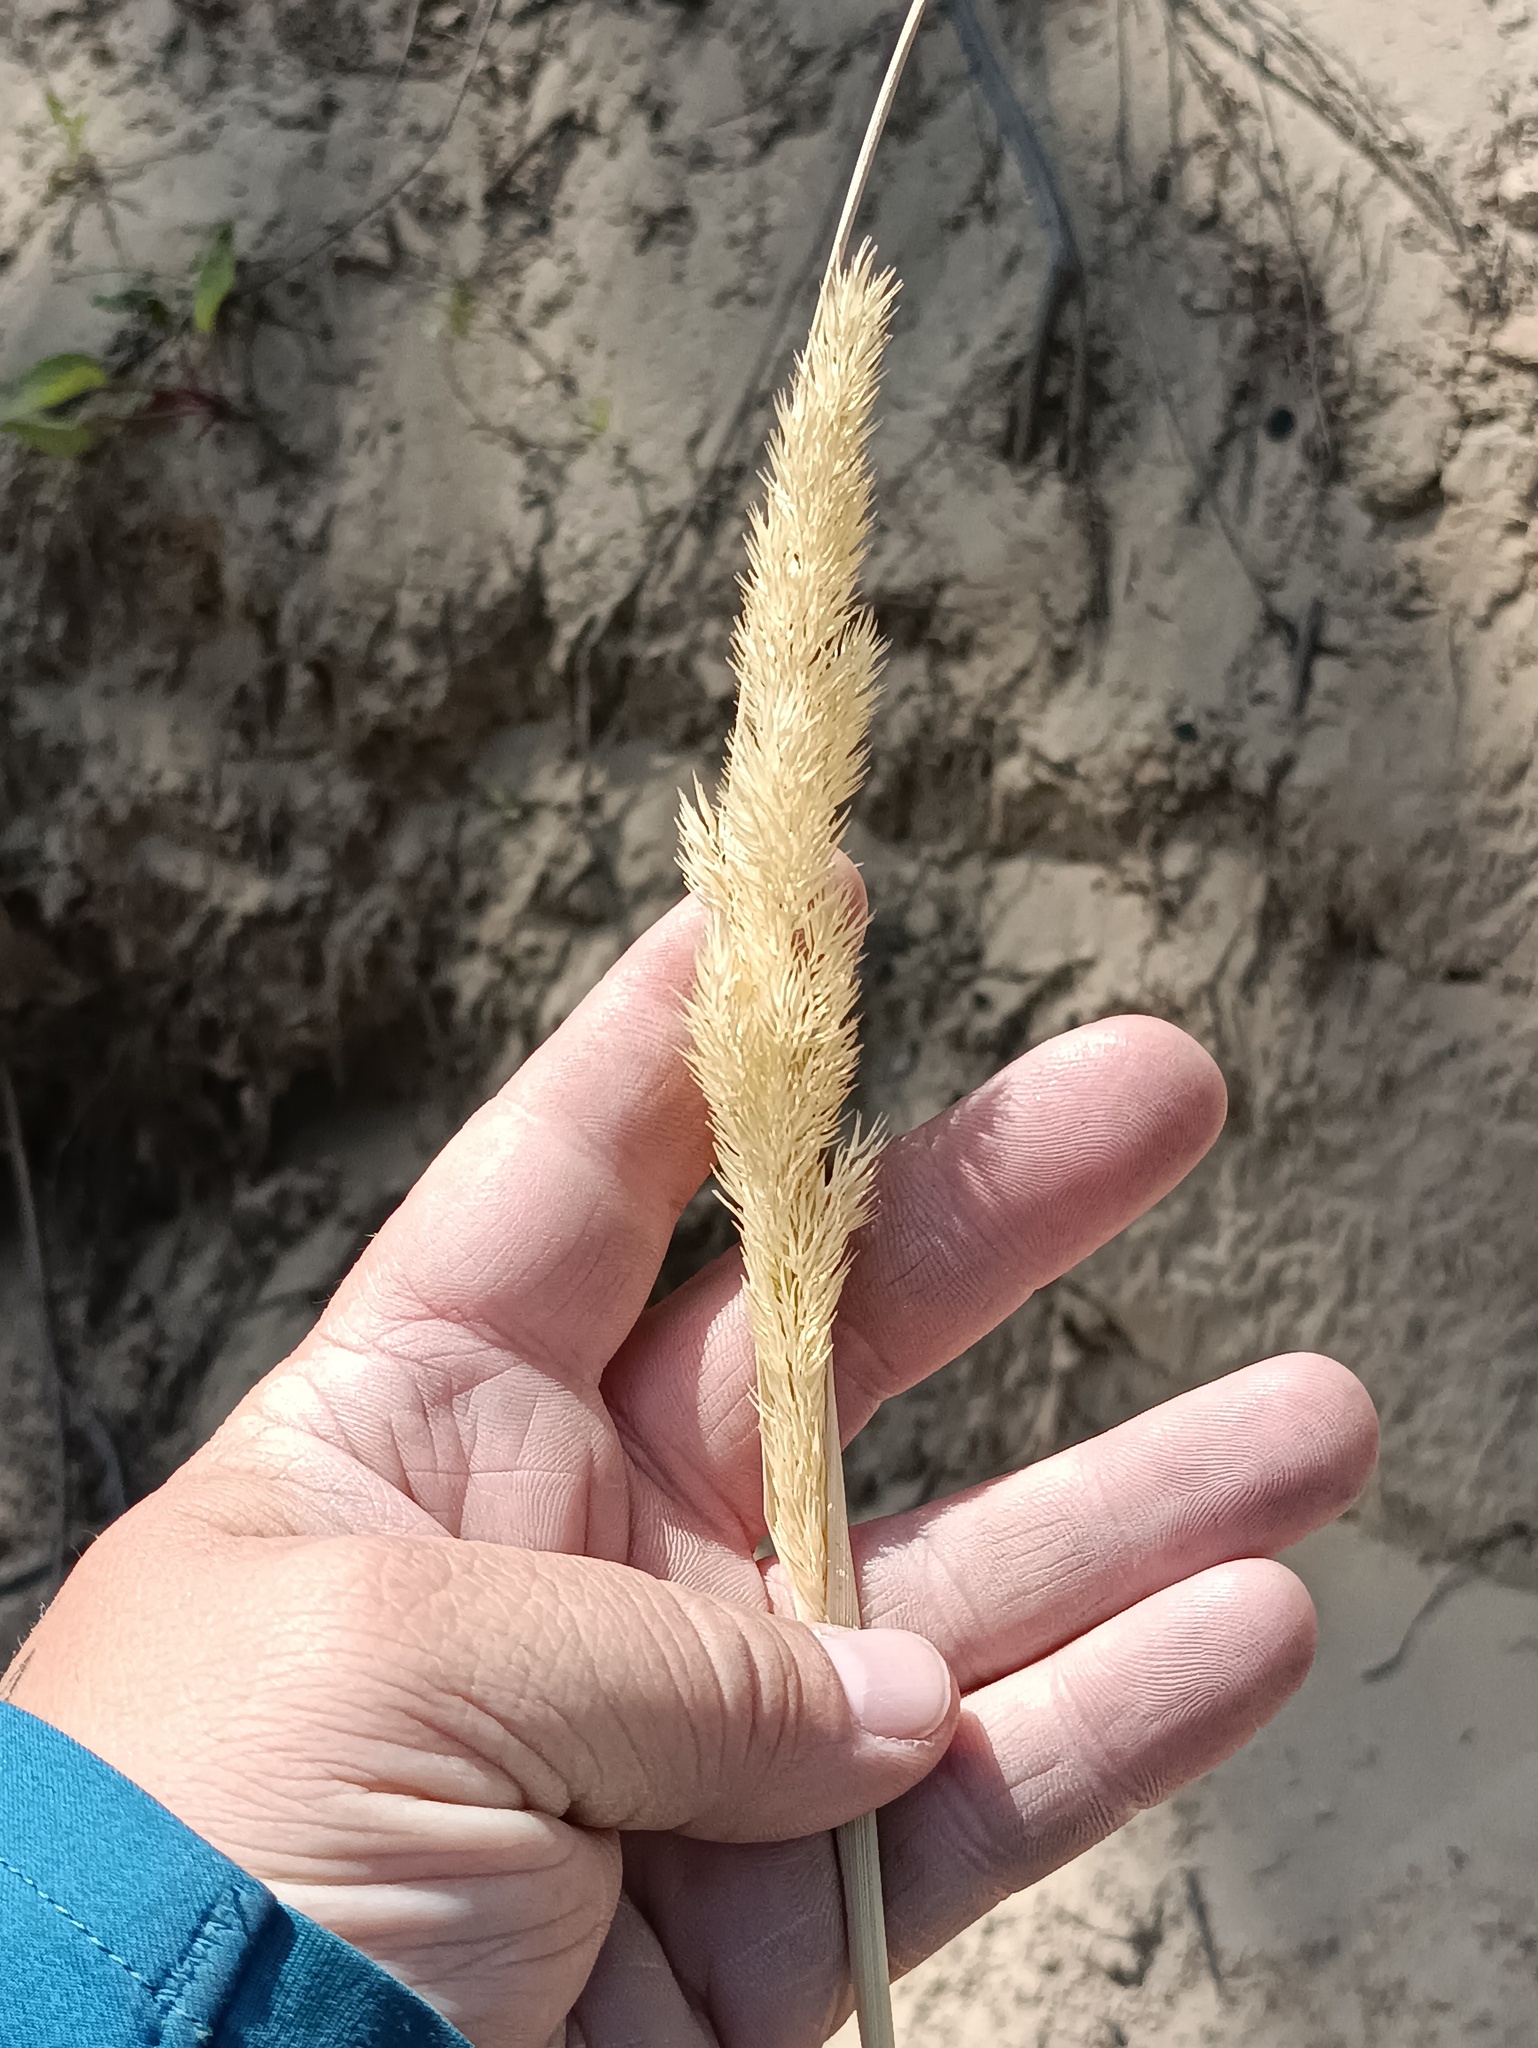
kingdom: Plantae
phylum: Tracheophyta
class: Liliopsida
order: Poales
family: Poaceae
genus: Calamagrostis
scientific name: Calamagrostis epigejos
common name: Wood small-reed
